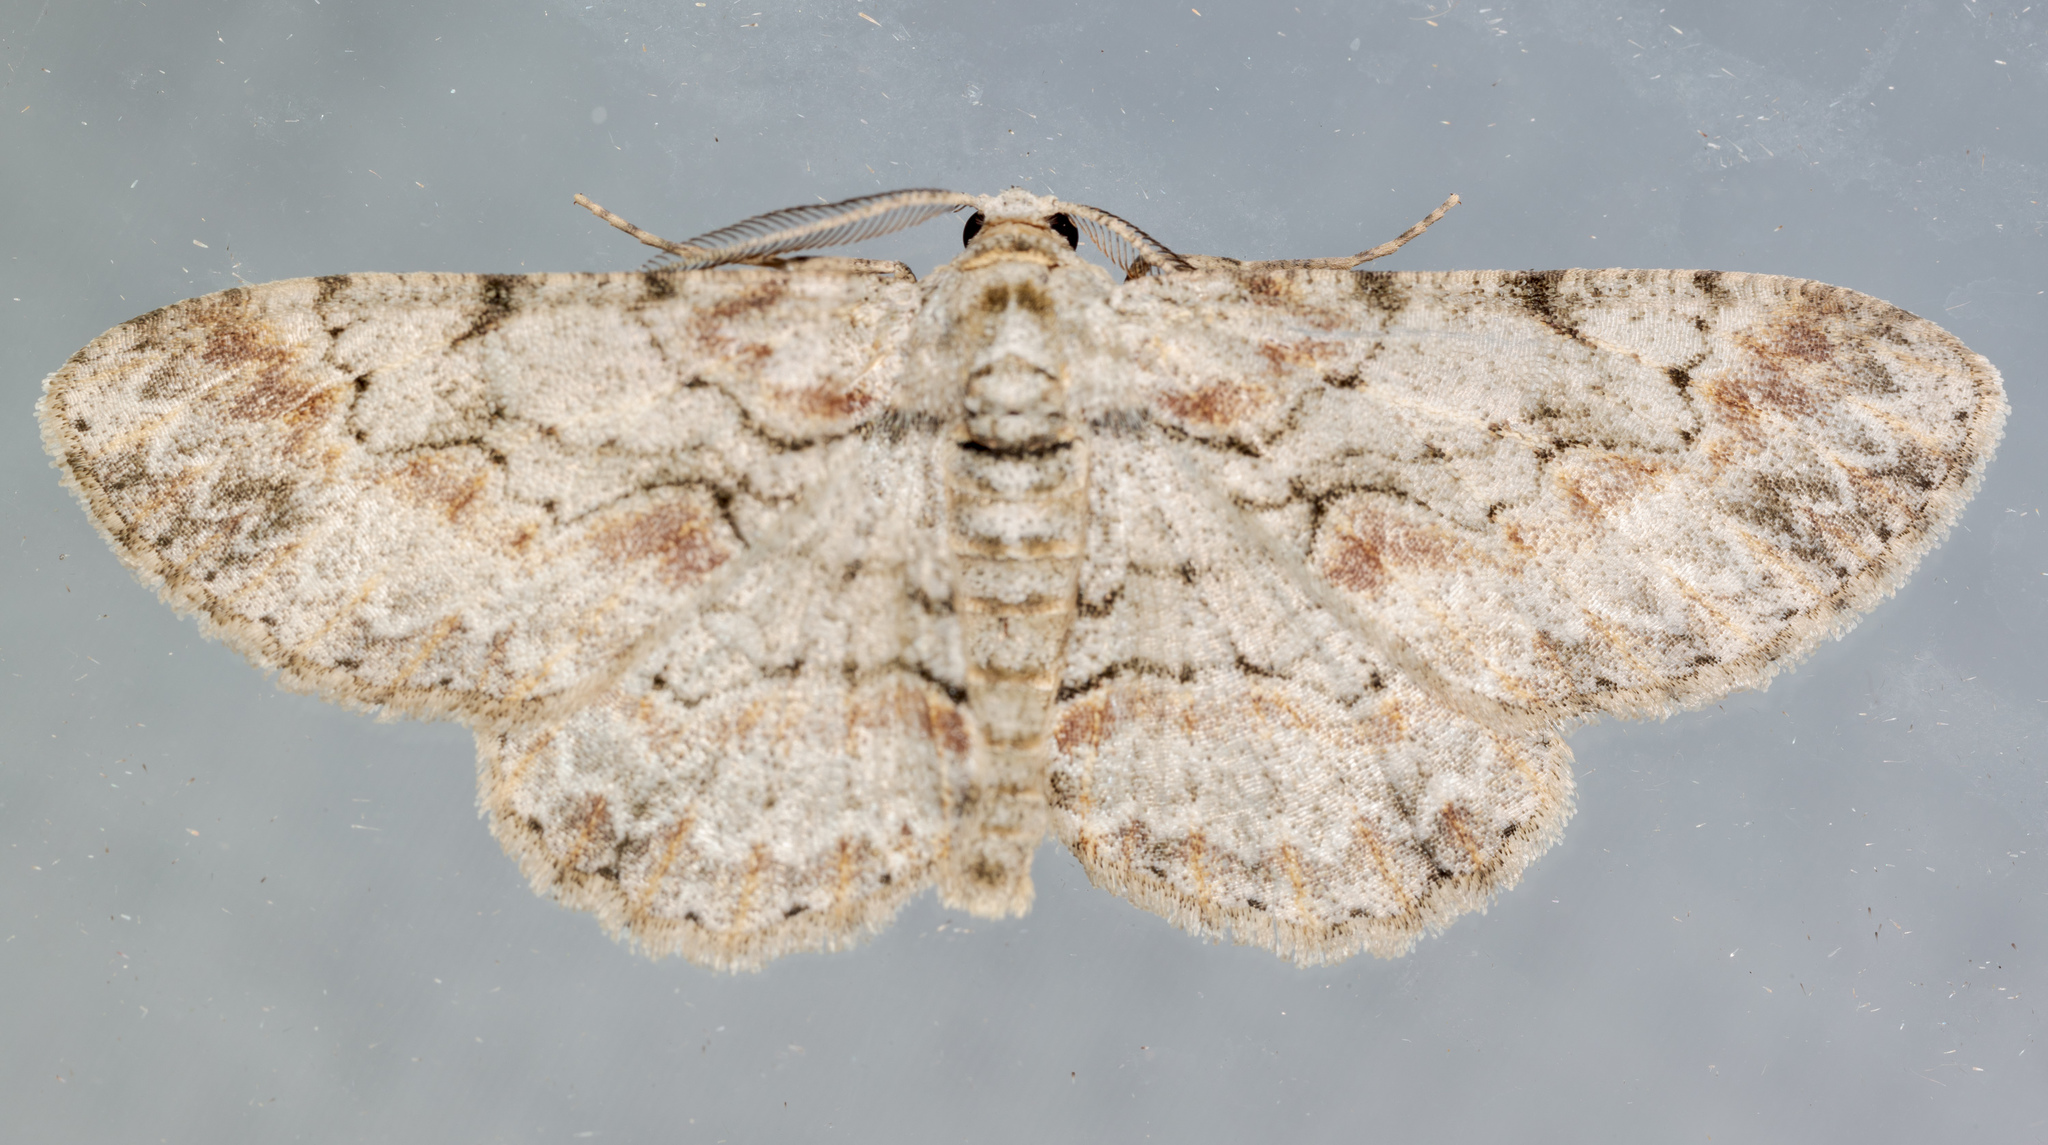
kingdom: Animalia
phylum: Arthropoda
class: Insecta
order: Lepidoptera
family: Geometridae
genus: Iridopsis
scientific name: Iridopsis defectaria
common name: Brown-shaded gray
